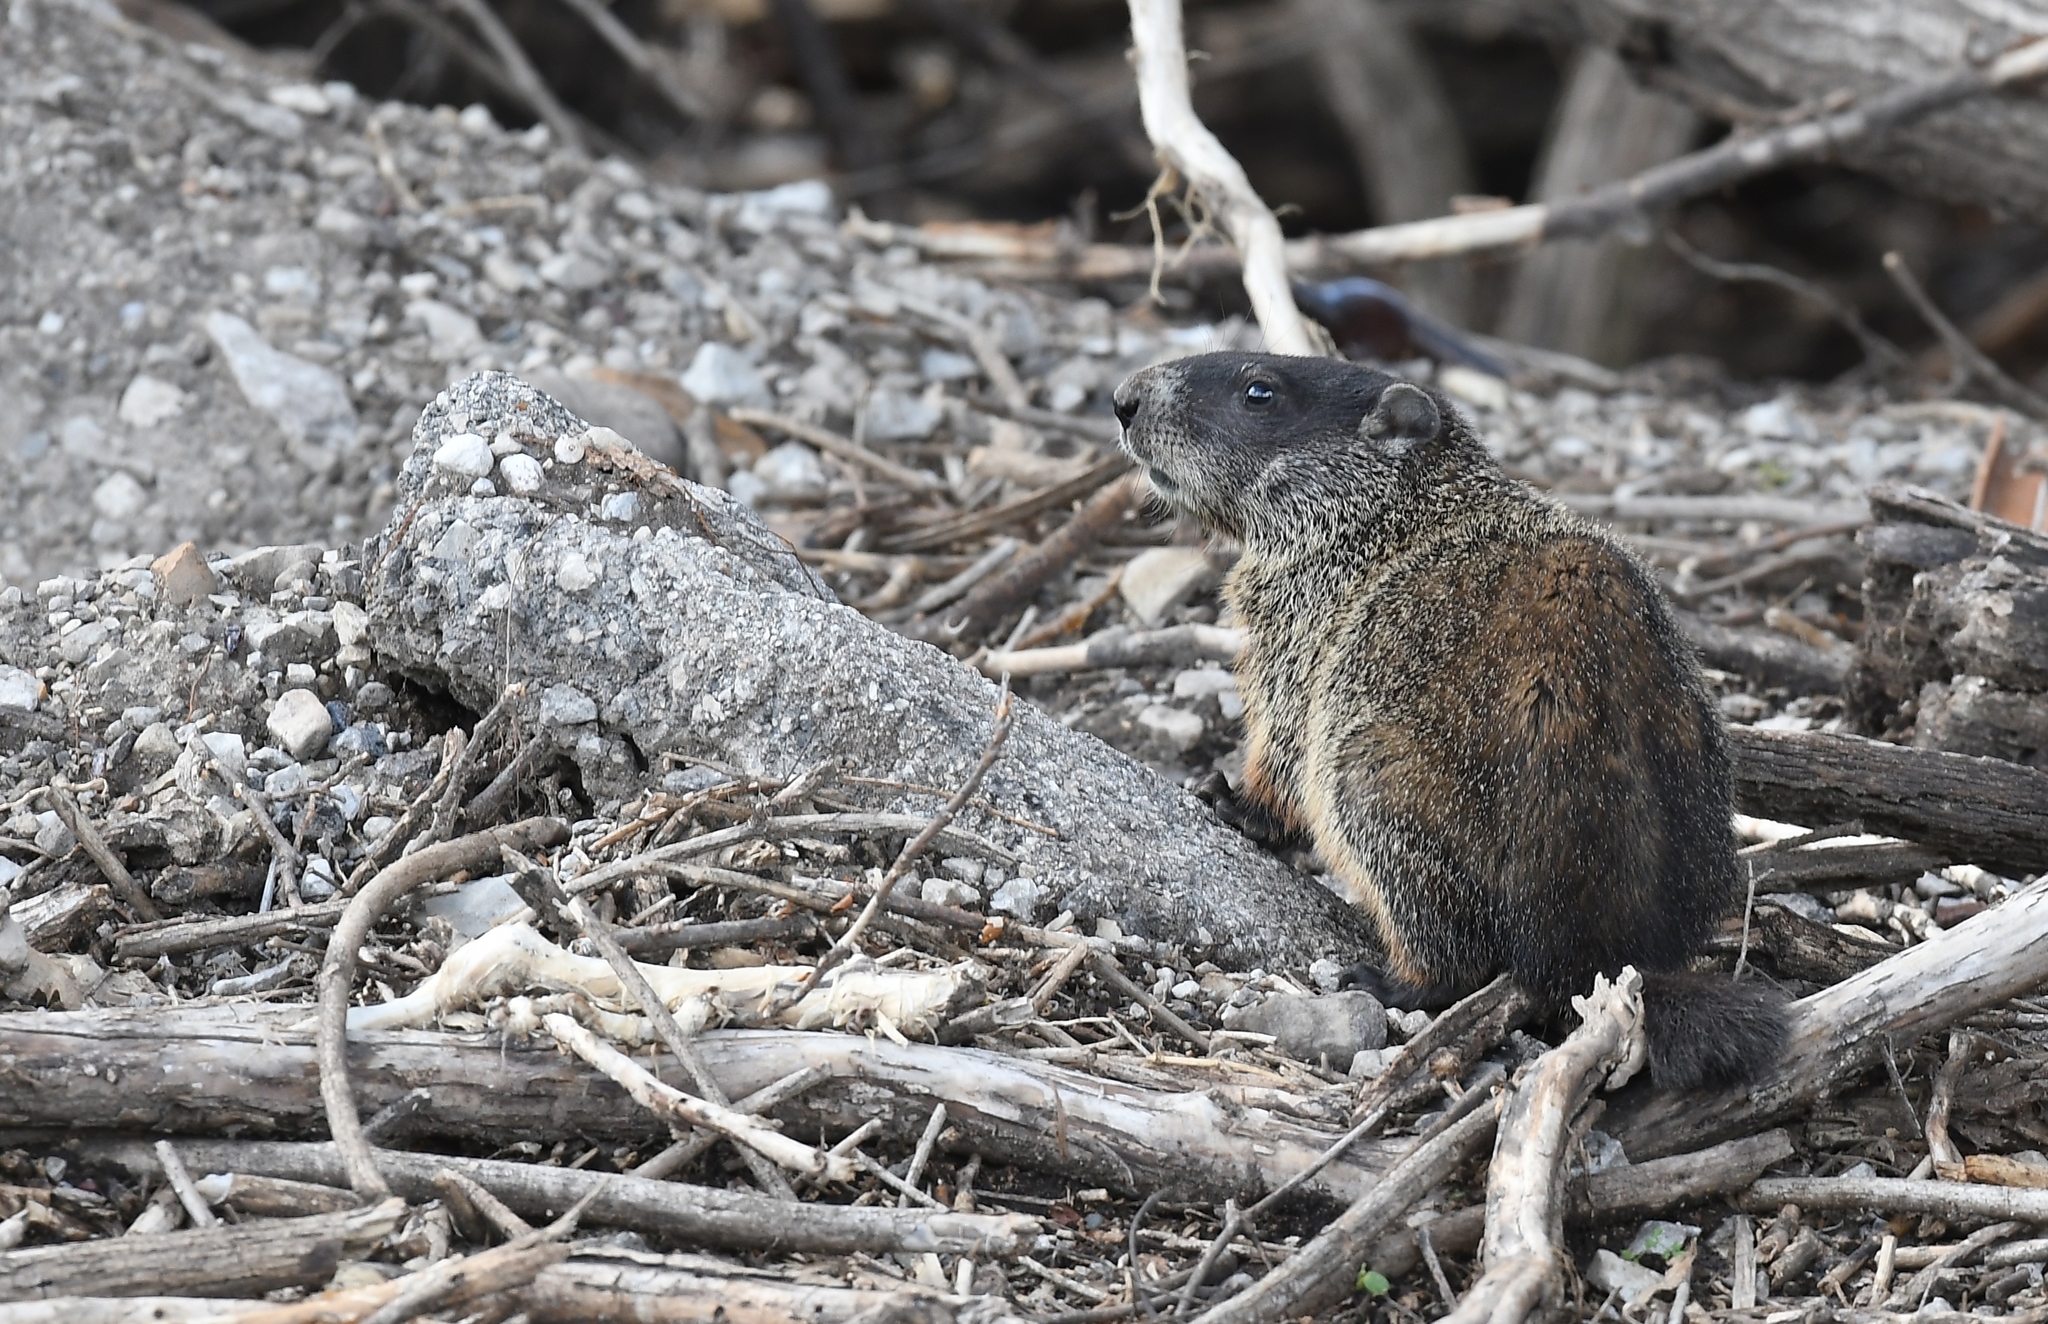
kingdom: Animalia
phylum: Chordata
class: Mammalia
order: Rodentia
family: Sciuridae
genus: Marmota
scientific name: Marmota monax
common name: Groundhog
